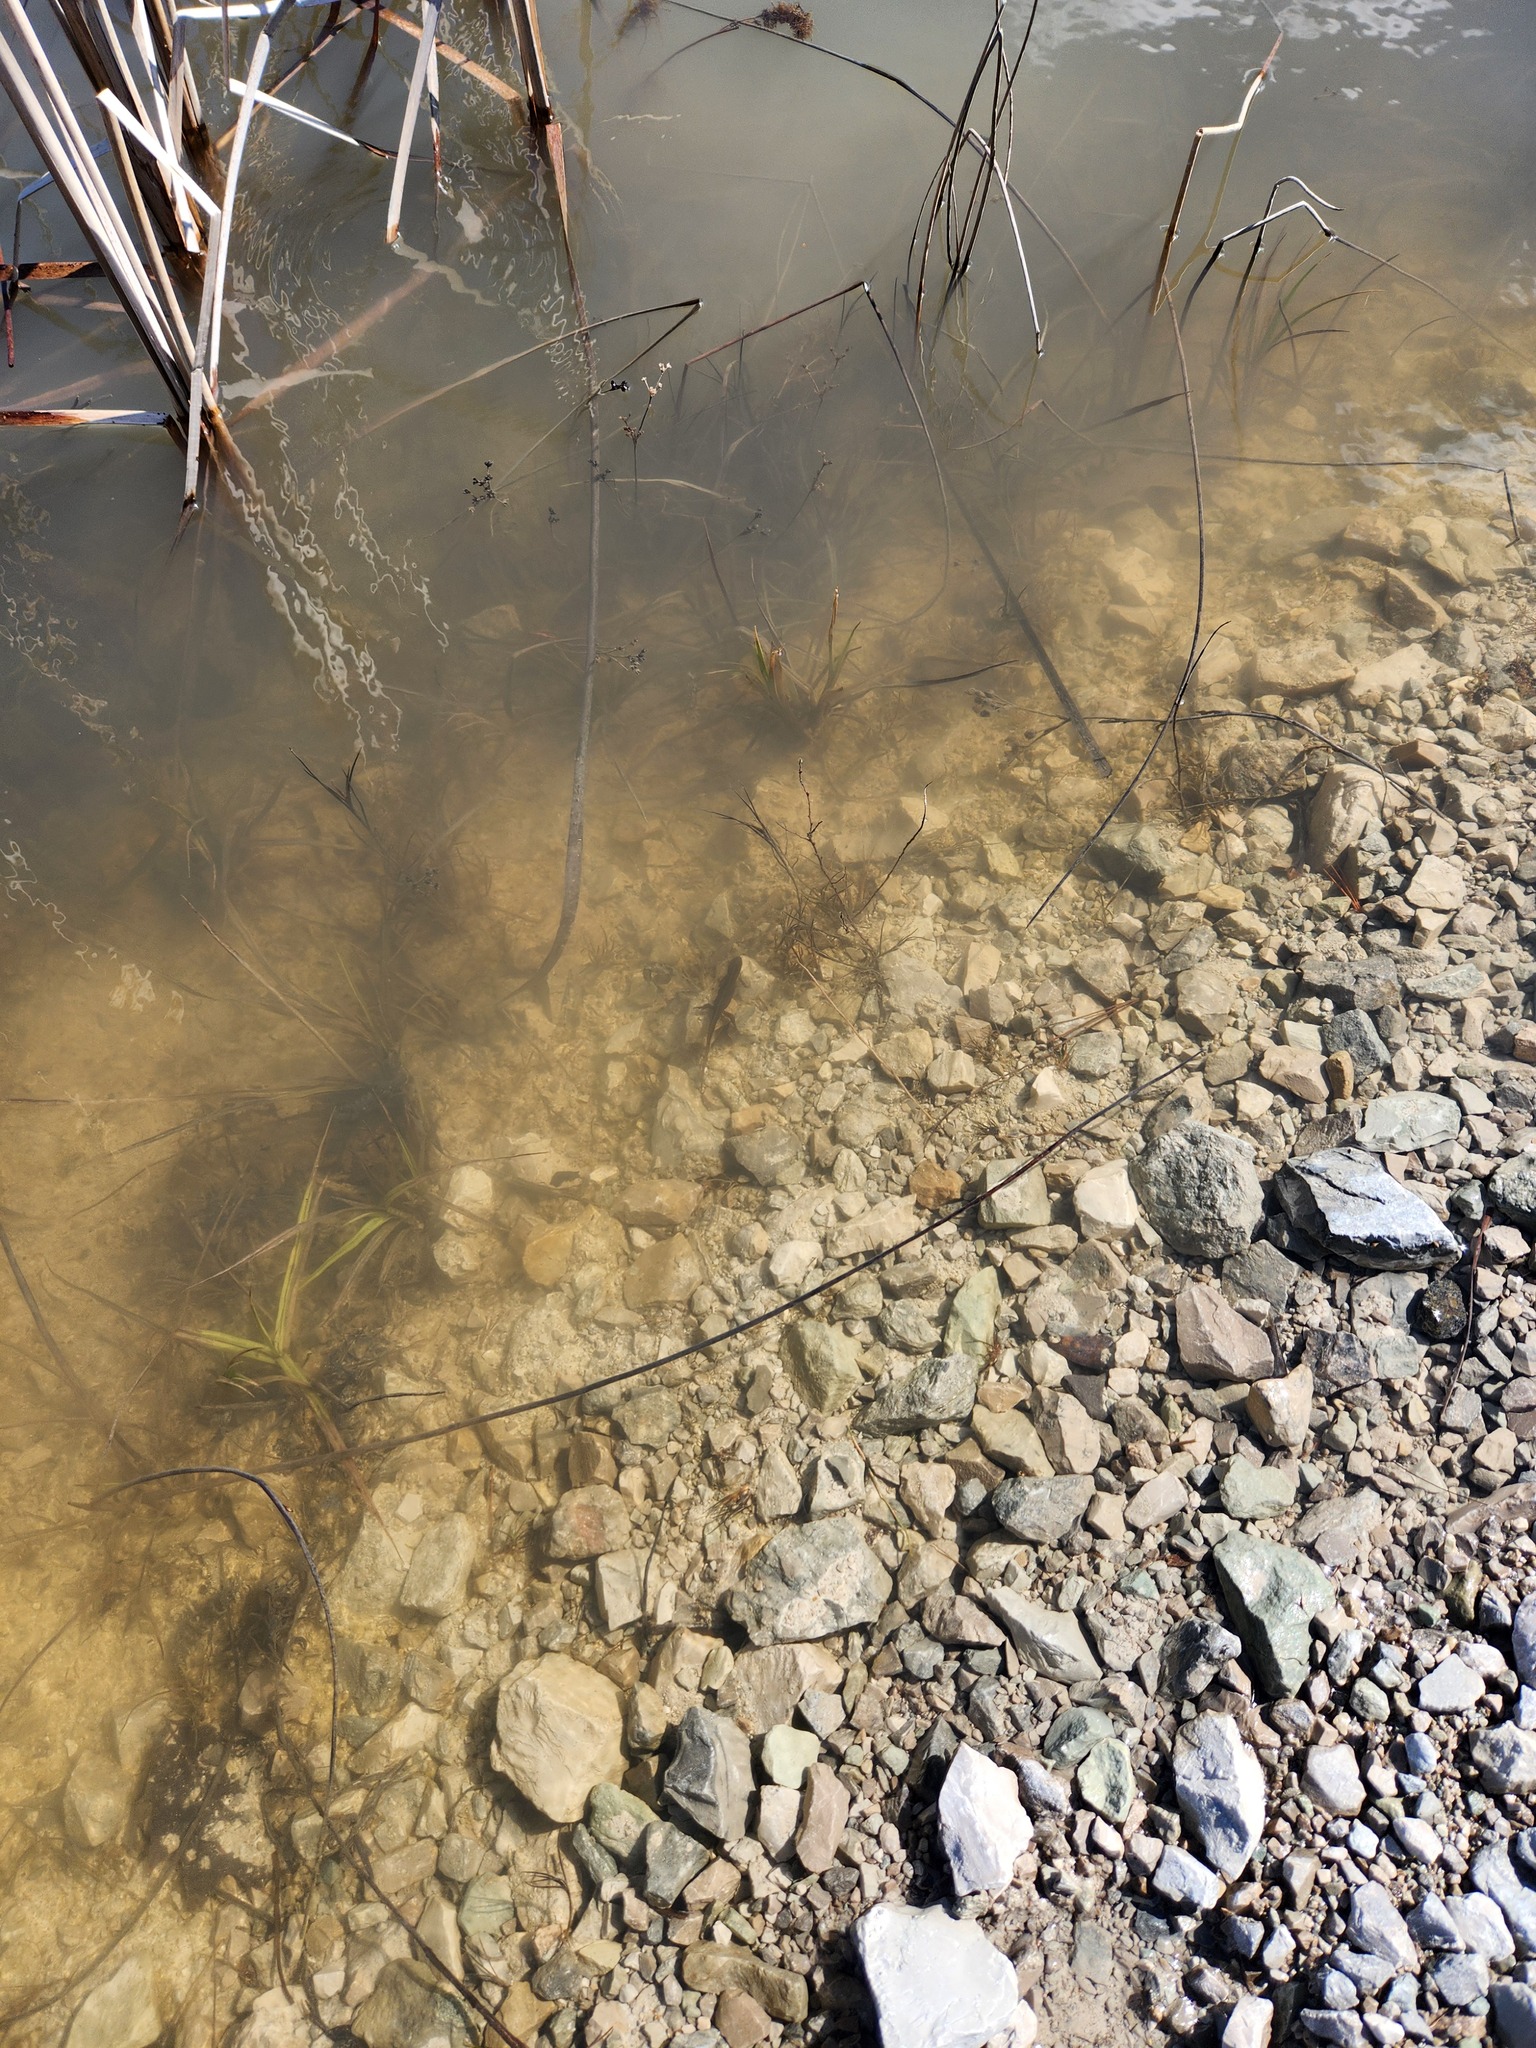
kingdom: Animalia
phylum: Chordata
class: Amphibia
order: Caudata
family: Salamandridae
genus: Notophthalmus
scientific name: Notophthalmus viridescens
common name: Eastern newt
